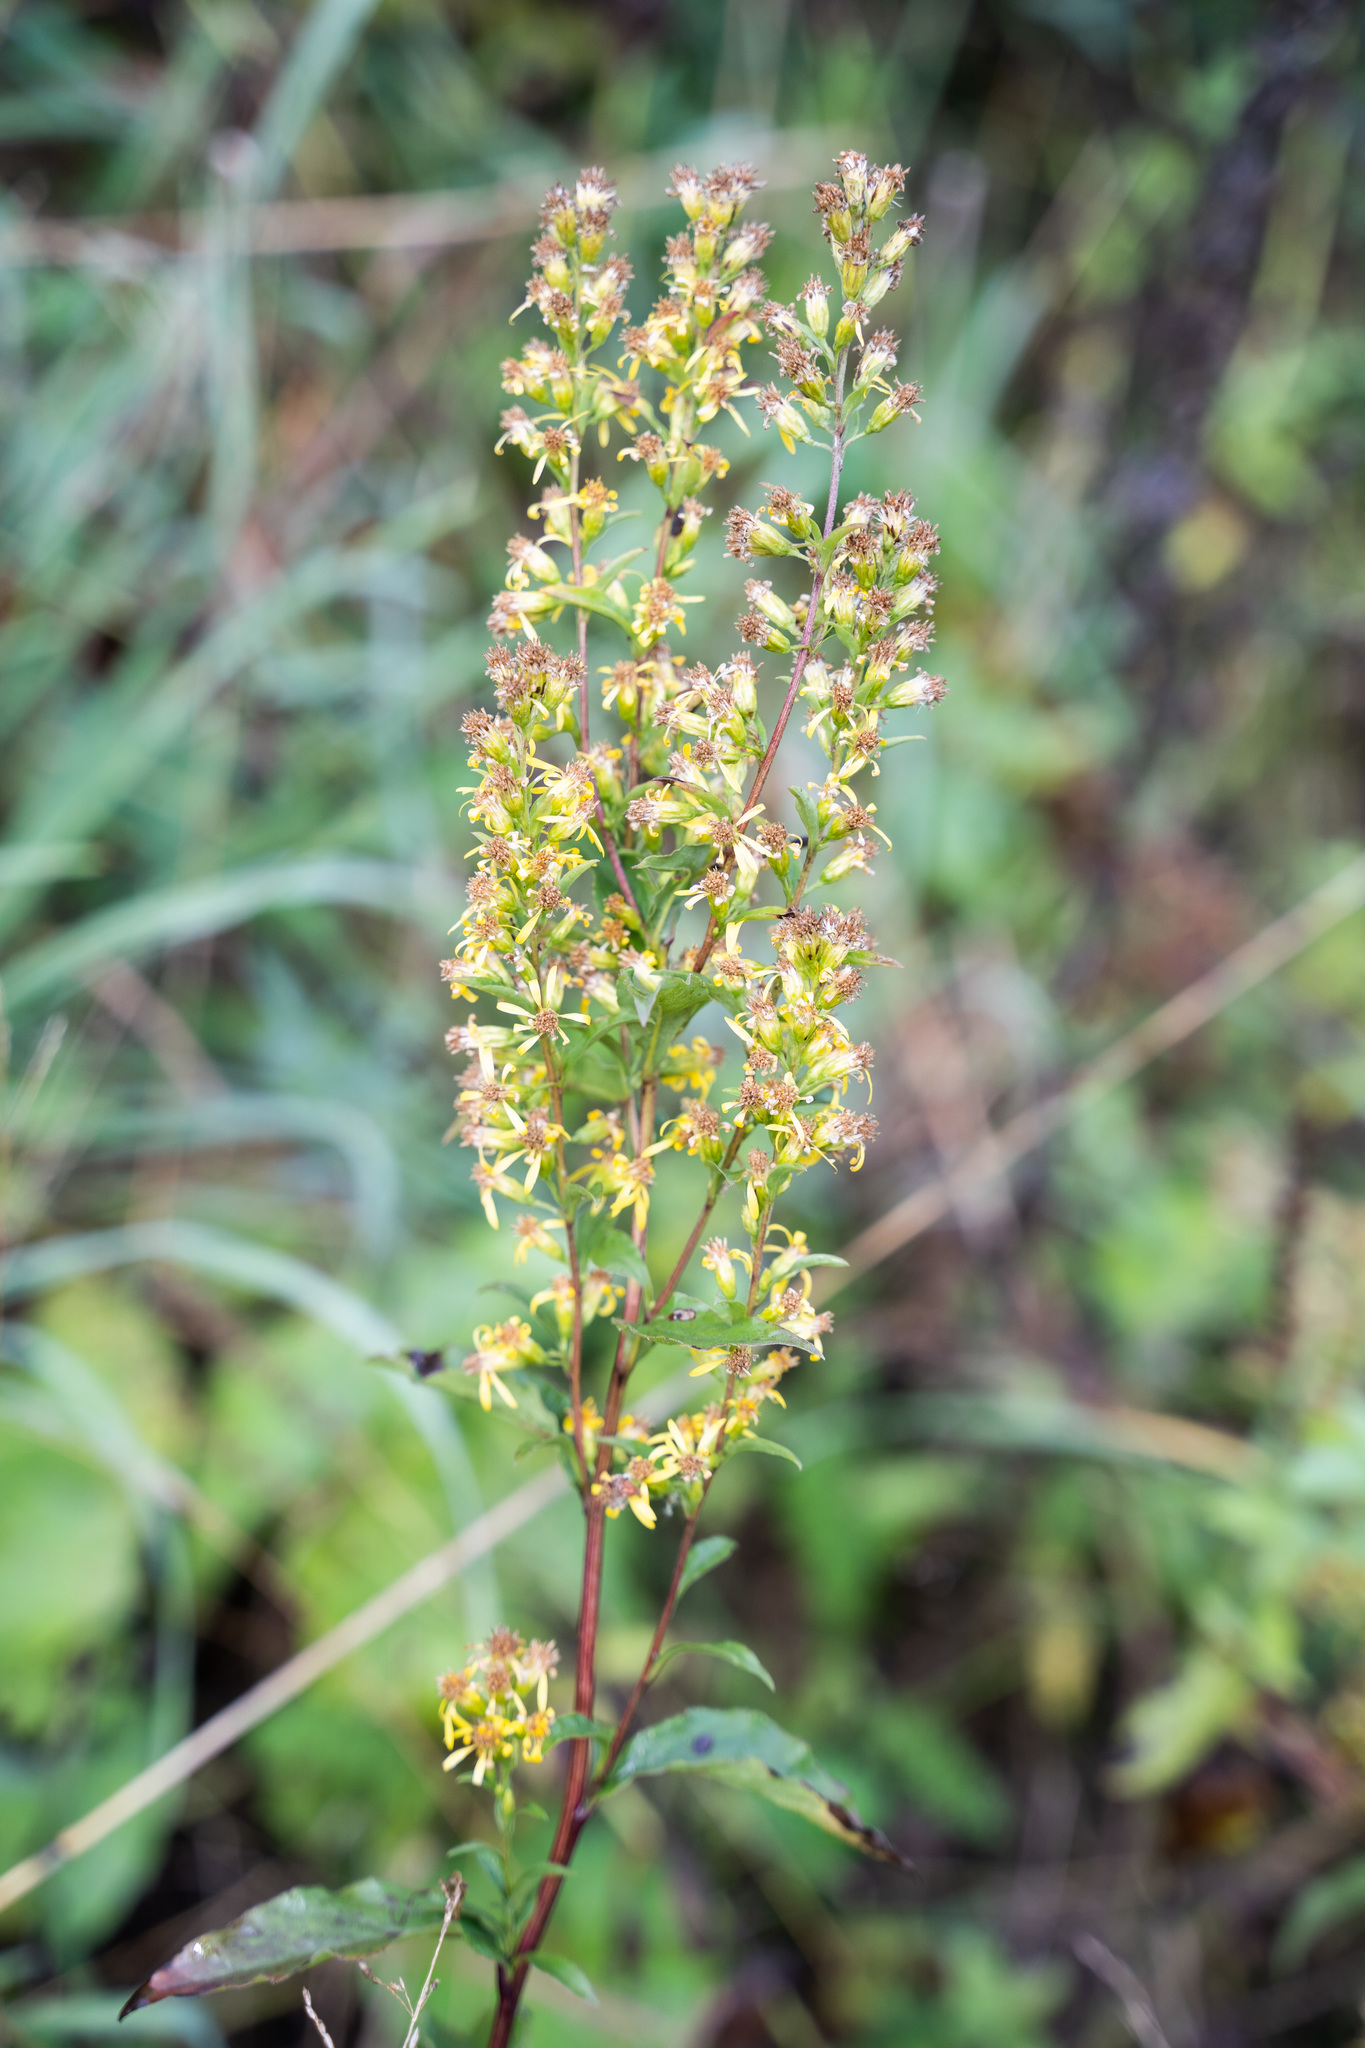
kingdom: Plantae
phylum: Tracheophyta
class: Magnoliopsida
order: Asterales
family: Asteraceae
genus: Solidago
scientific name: Solidago virgaurea
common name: Goldenrod
